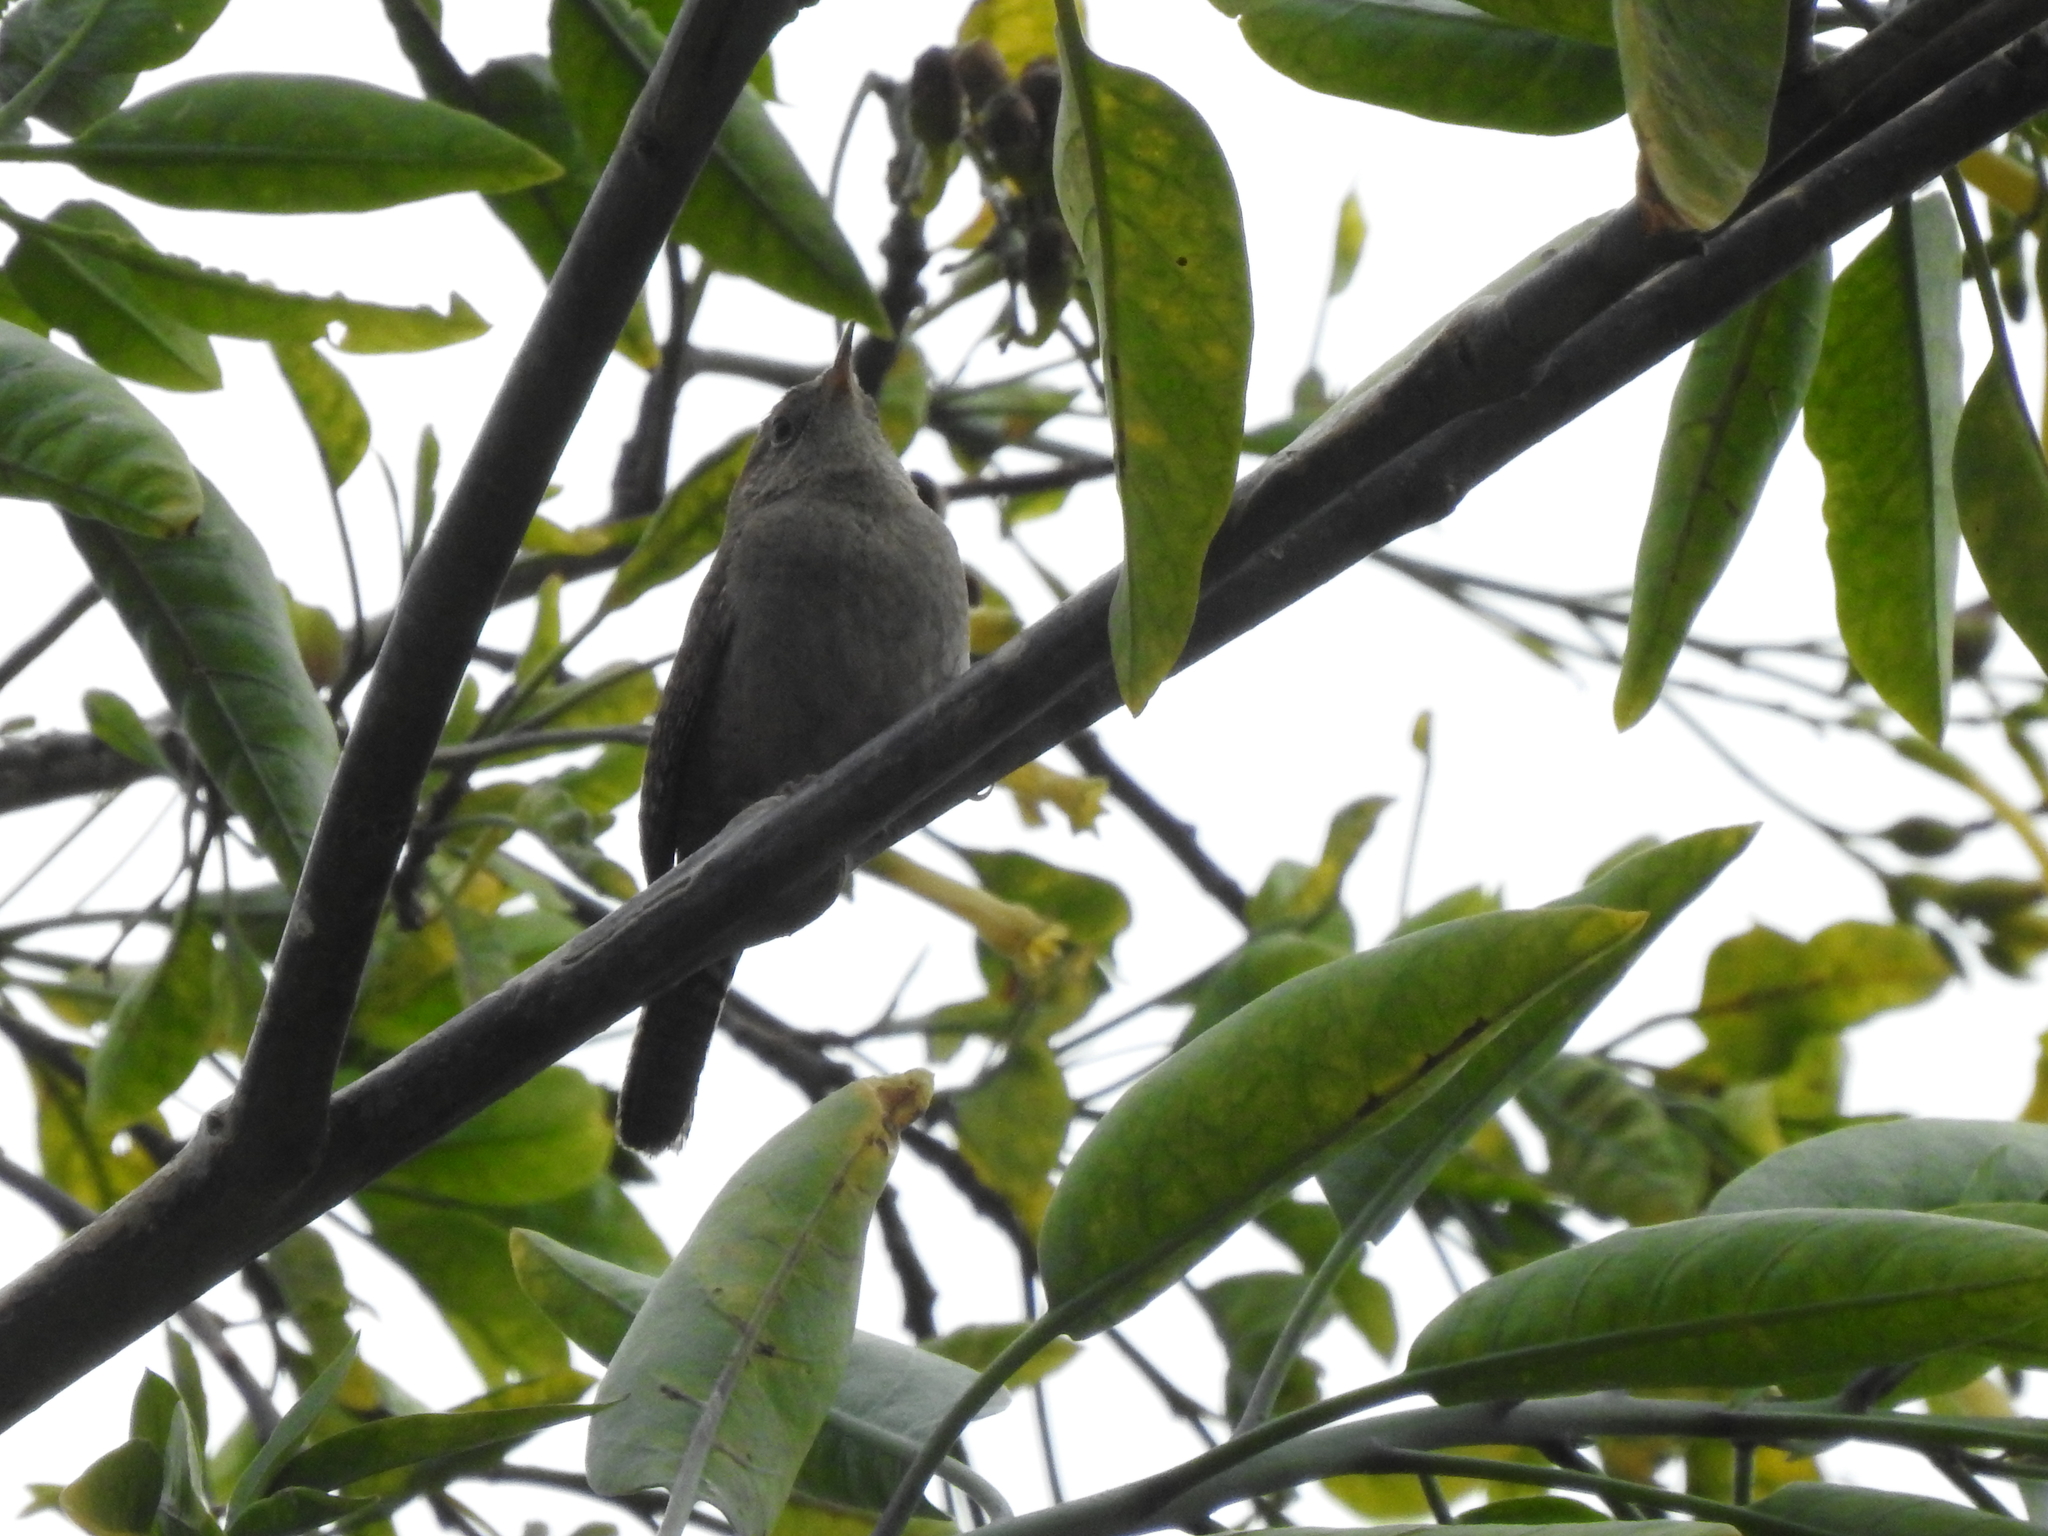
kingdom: Animalia
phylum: Chordata
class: Aves
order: Passeriformes
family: Troglodytidae
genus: Troglodytes
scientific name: Troglodytes aedon
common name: House wren
